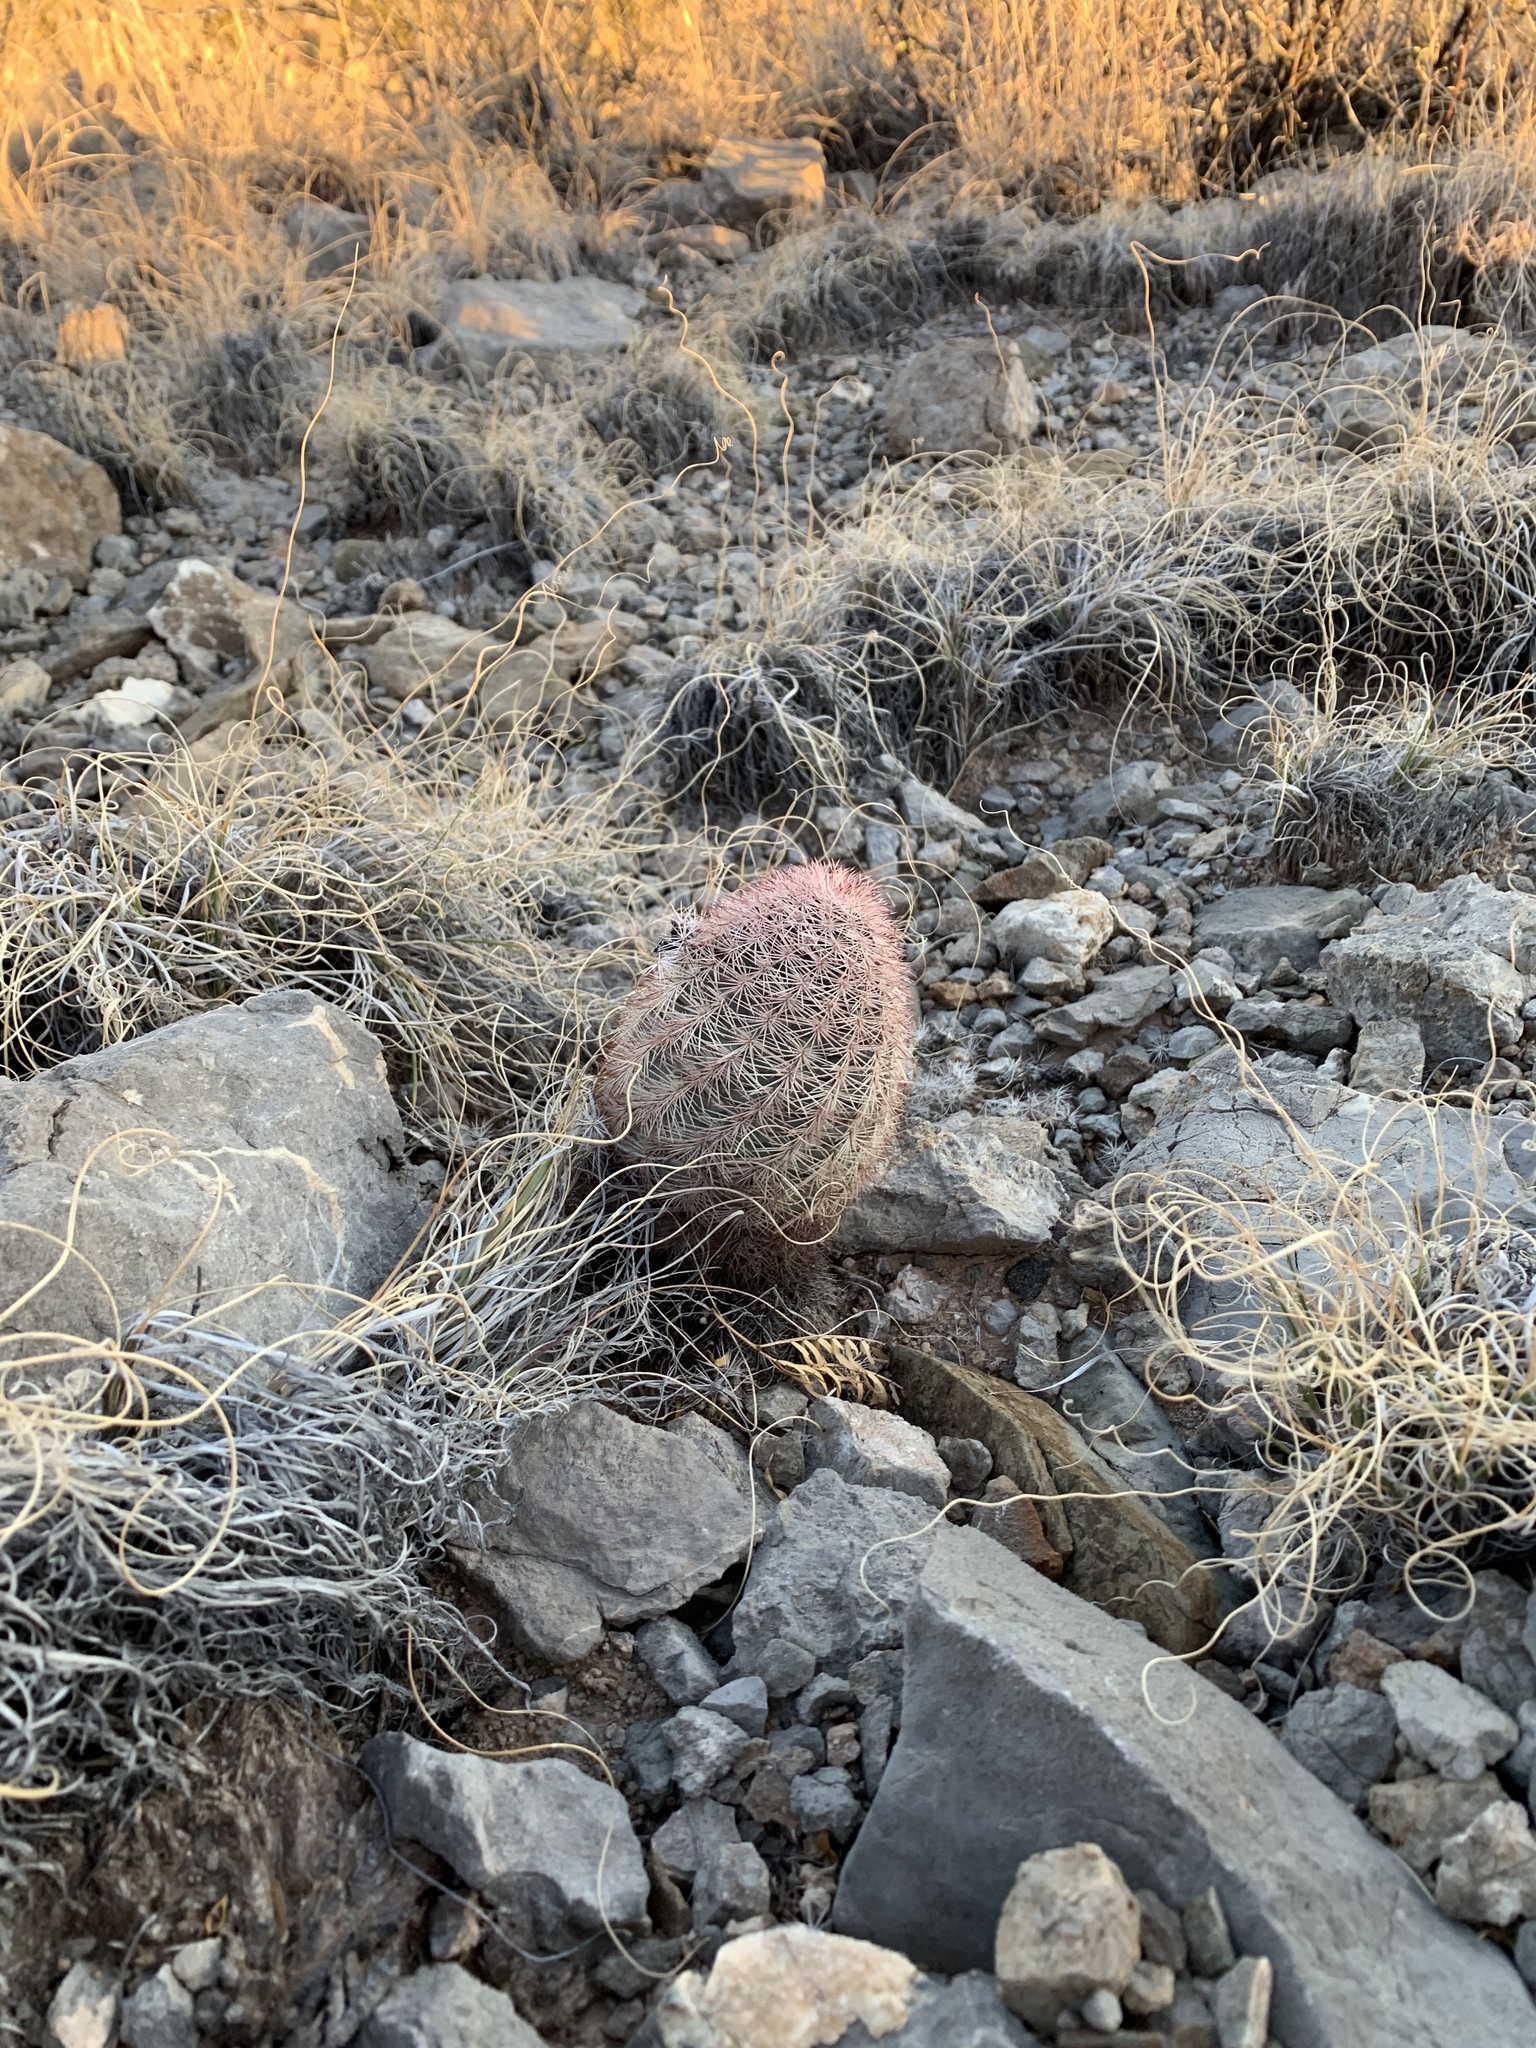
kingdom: Plantae
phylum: Tracheophyta
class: Magnoliopsida
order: Caryophyllales
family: Cactaceae
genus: Echinocereus
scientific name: Echinocereus dasyacanthus
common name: Spiny hedgehog cactus
